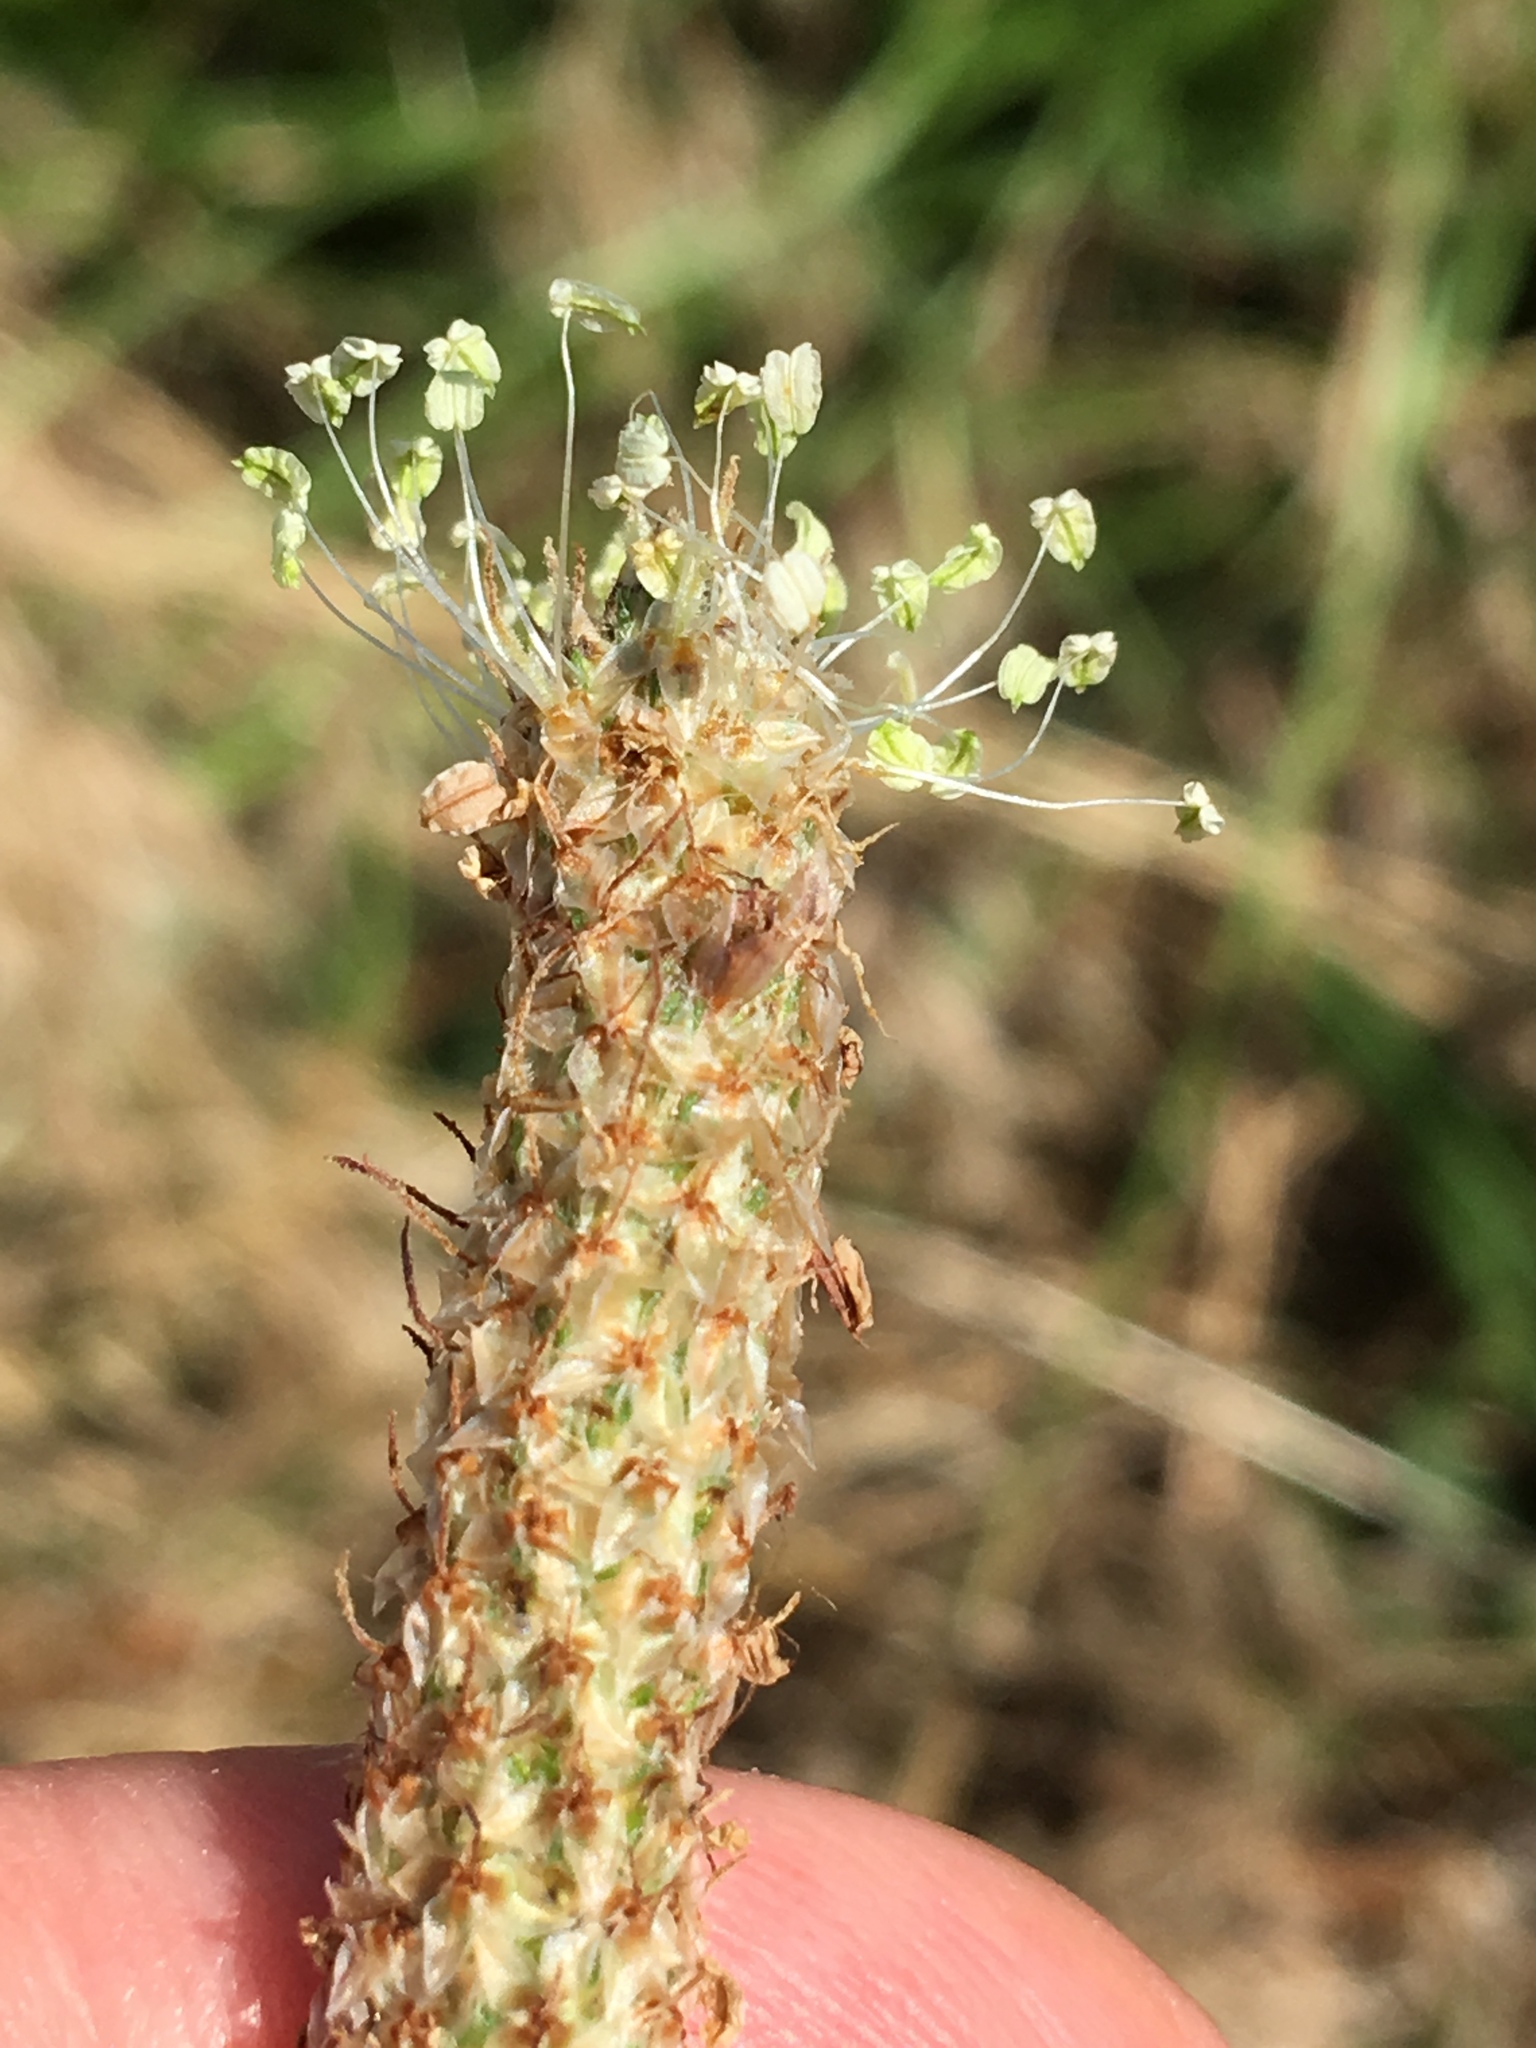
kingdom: Plantae
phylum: Tracheophyta
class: Magnoliopsida
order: Lamiales
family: Plantaginaceae
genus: Plantago
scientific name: Plantago lanceolata
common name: Ribwort plantain
